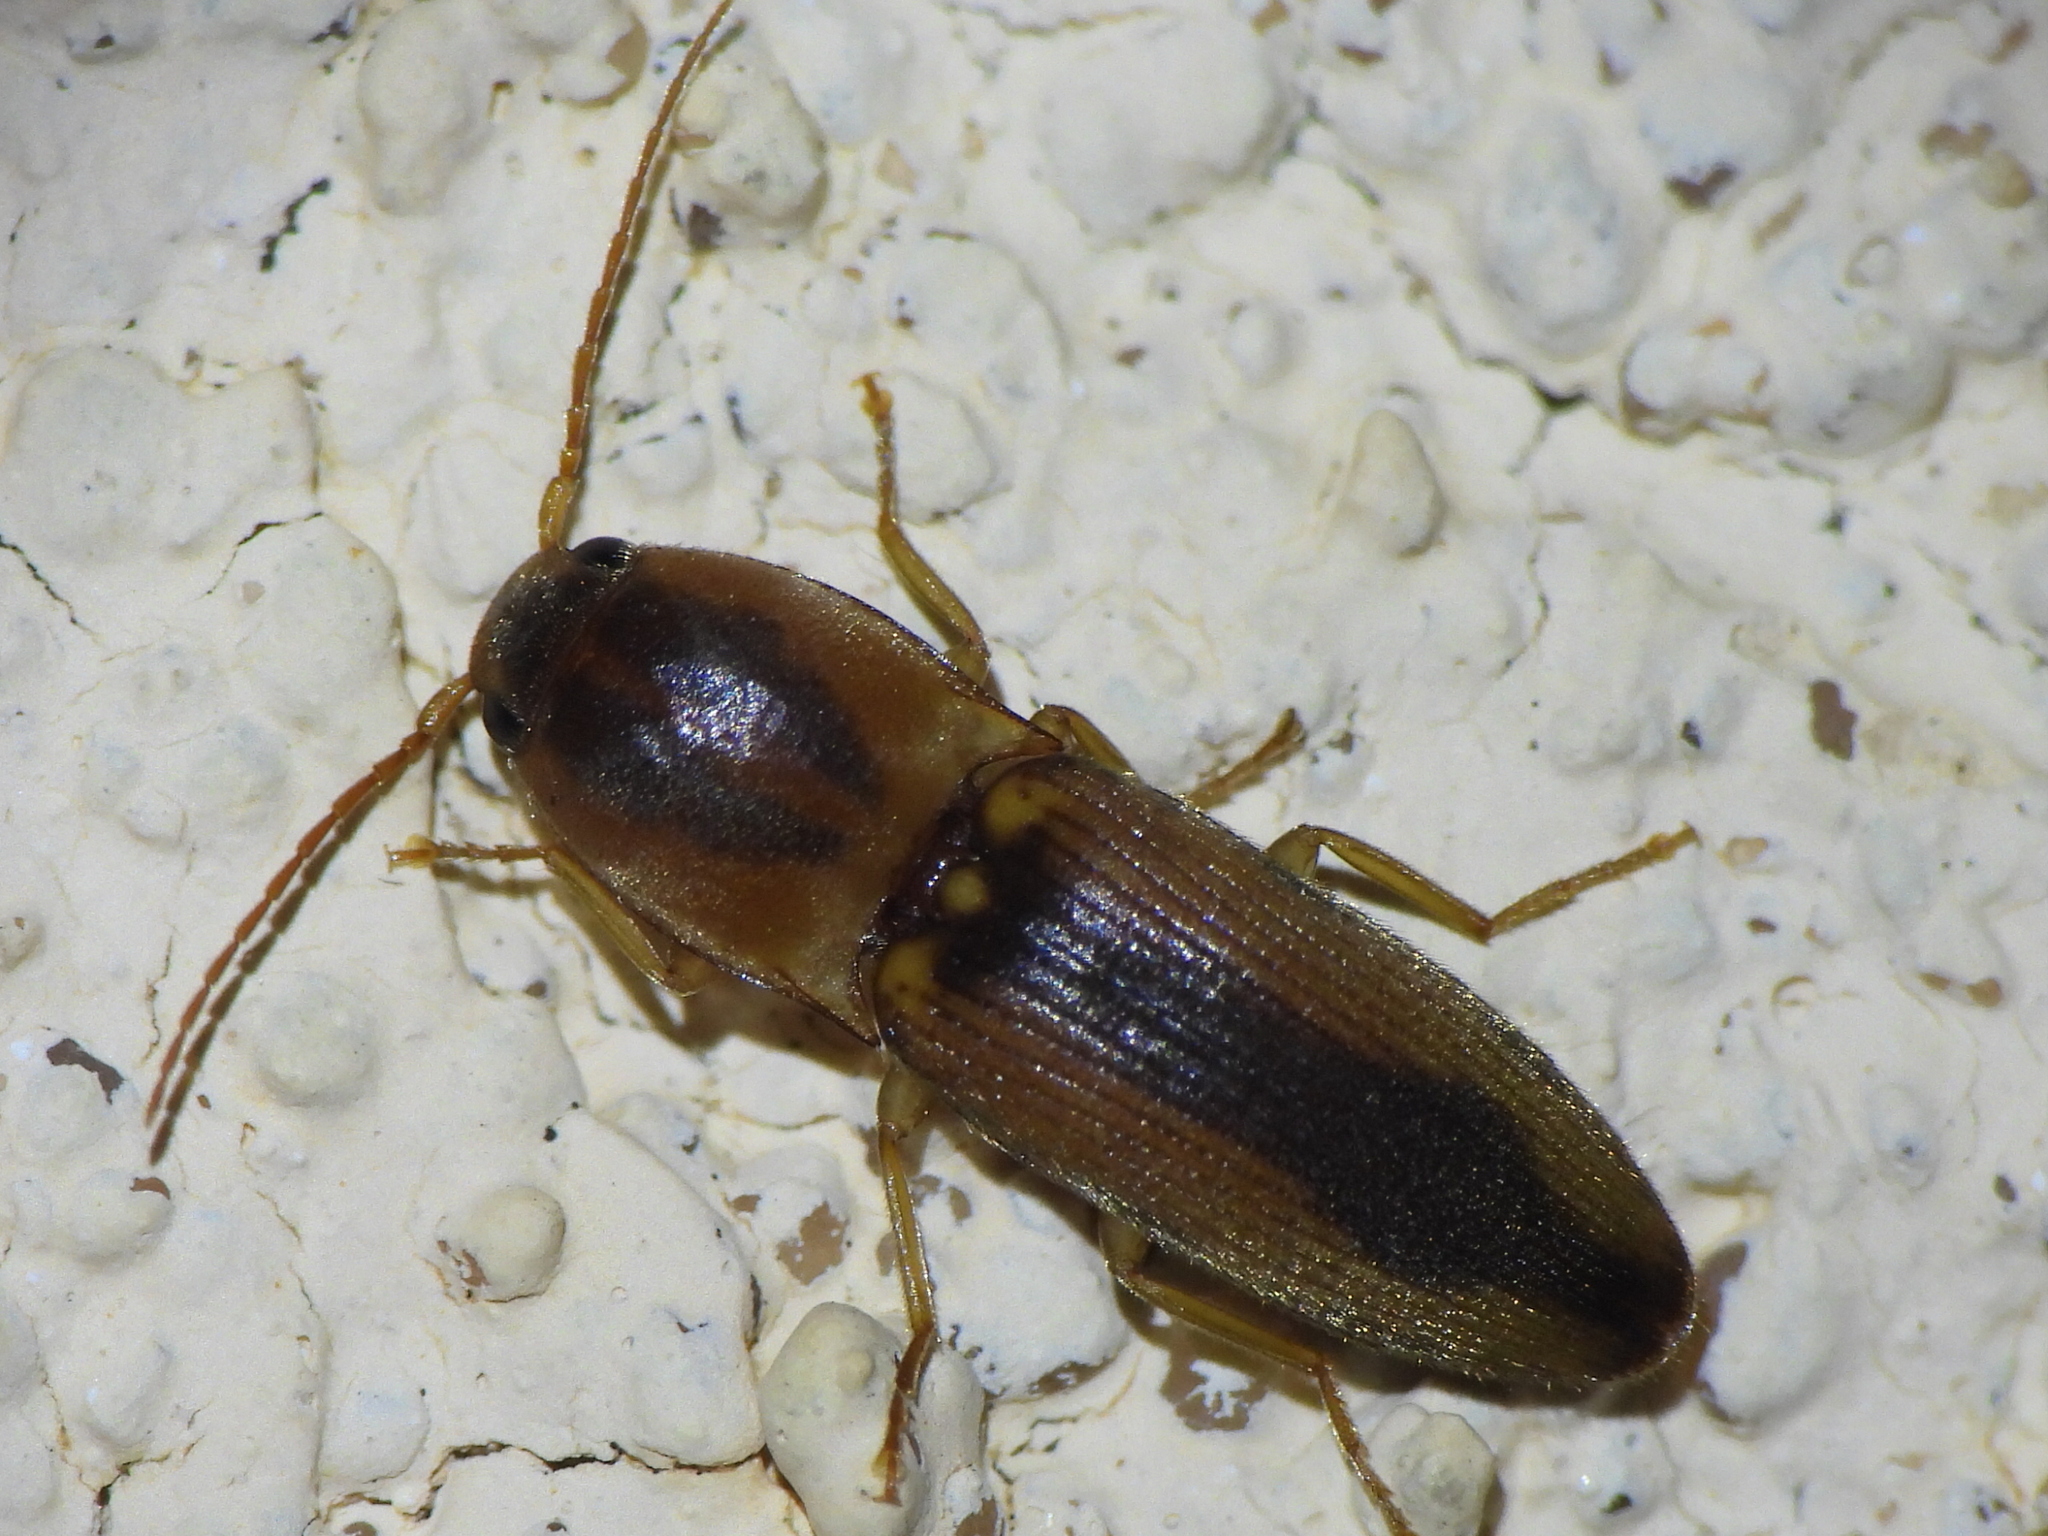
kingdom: Animalia
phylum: Arthropoda
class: Insecta
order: Coleoptera
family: Elateridae
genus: Monocrepidius
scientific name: Monocrepidius aversus
